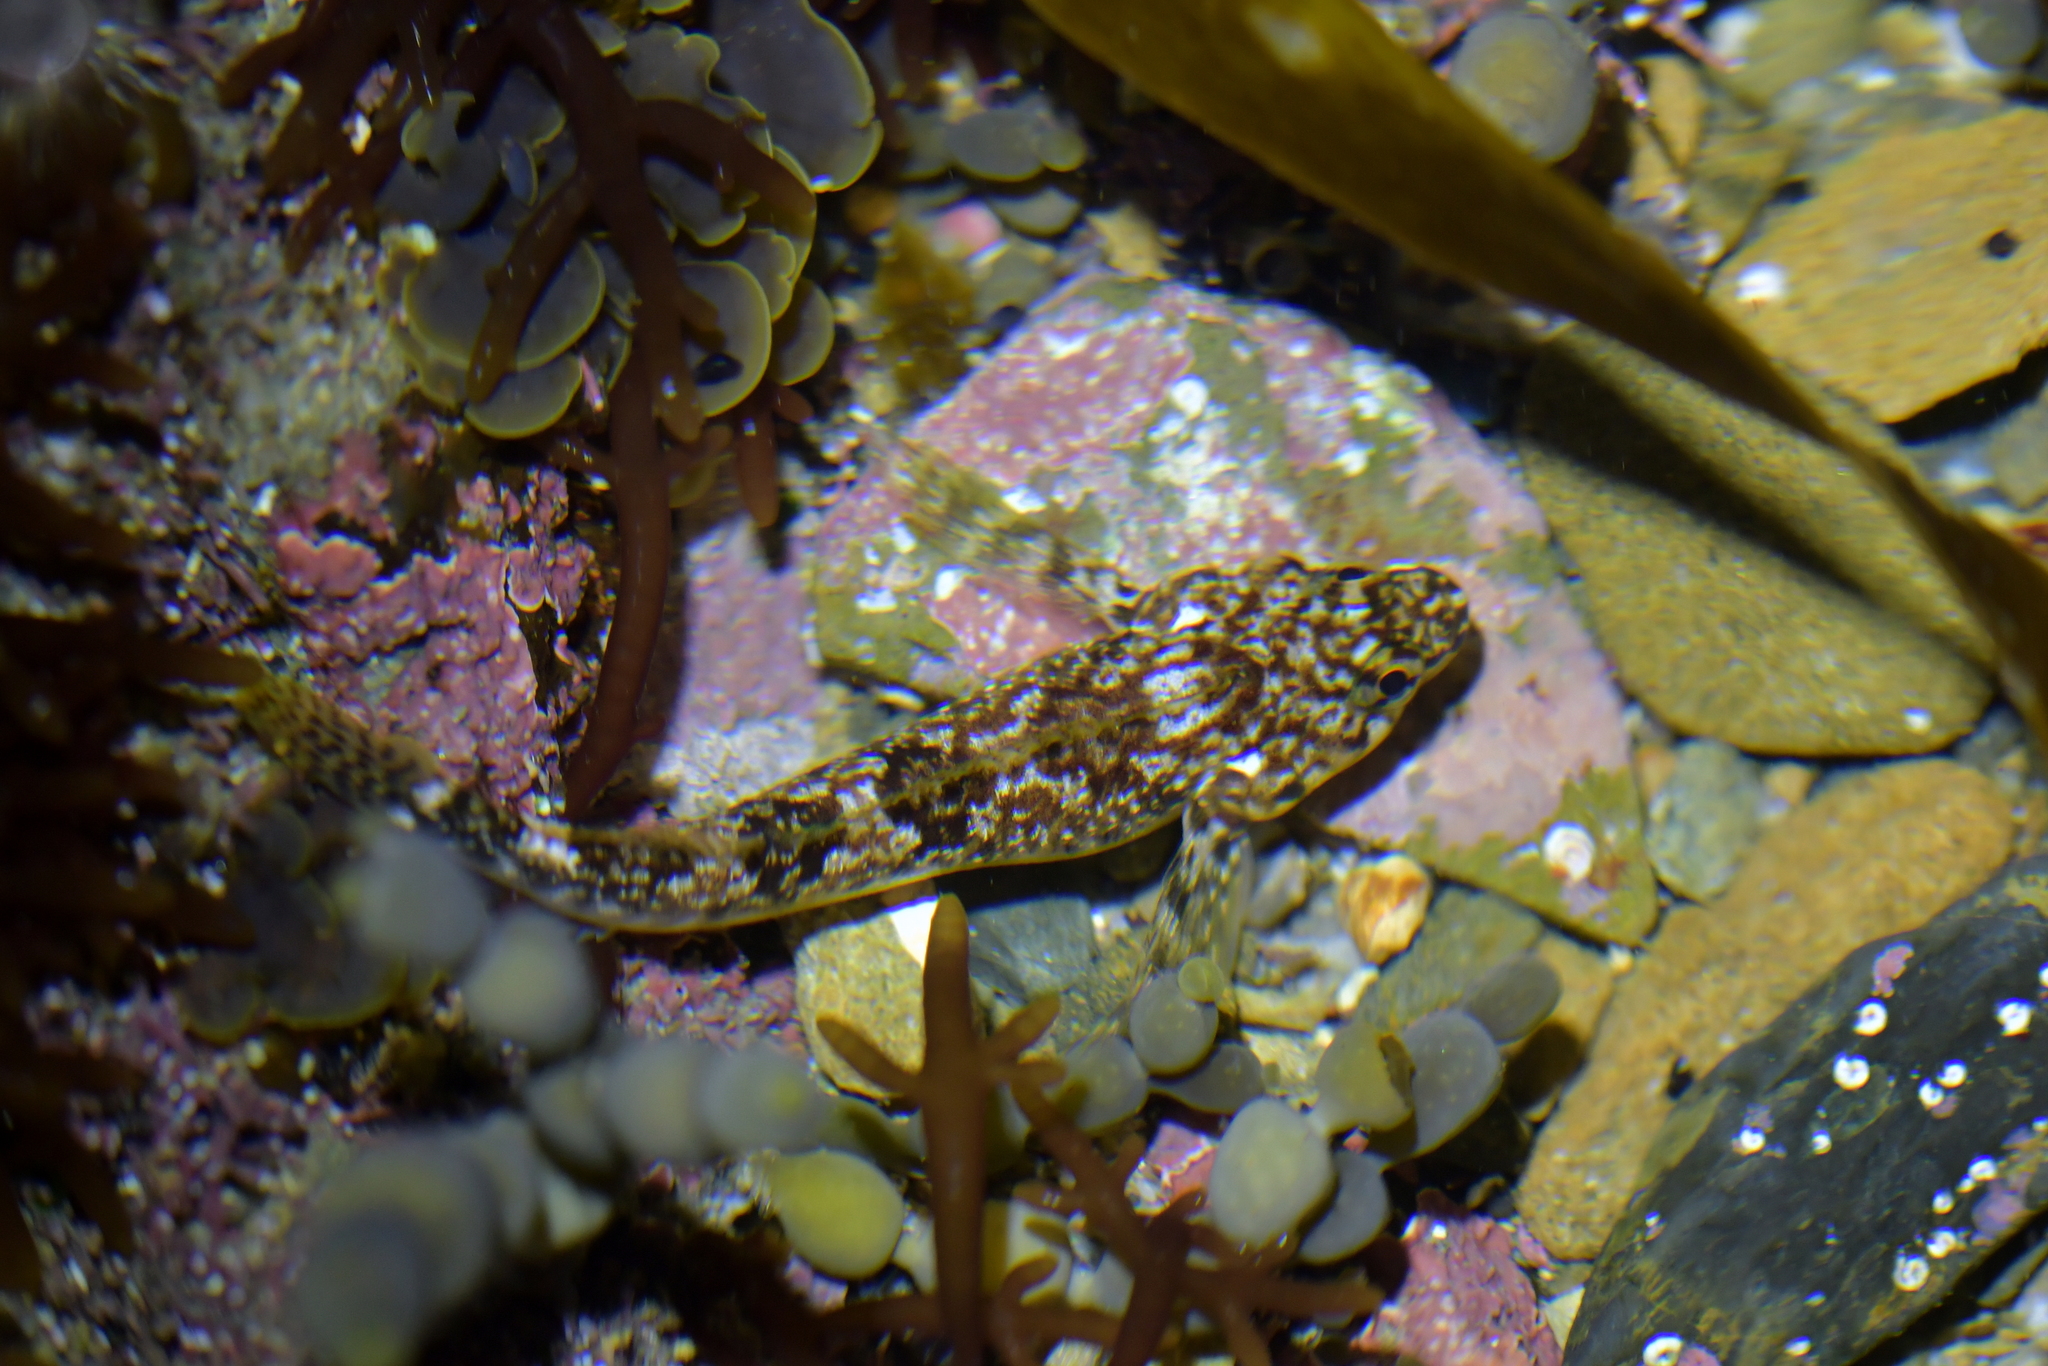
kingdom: Animalia
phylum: Chordata
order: Perciformes
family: Tripterygiidae
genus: Bellapiscis
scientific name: Bellapiscis medius
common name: Twister
